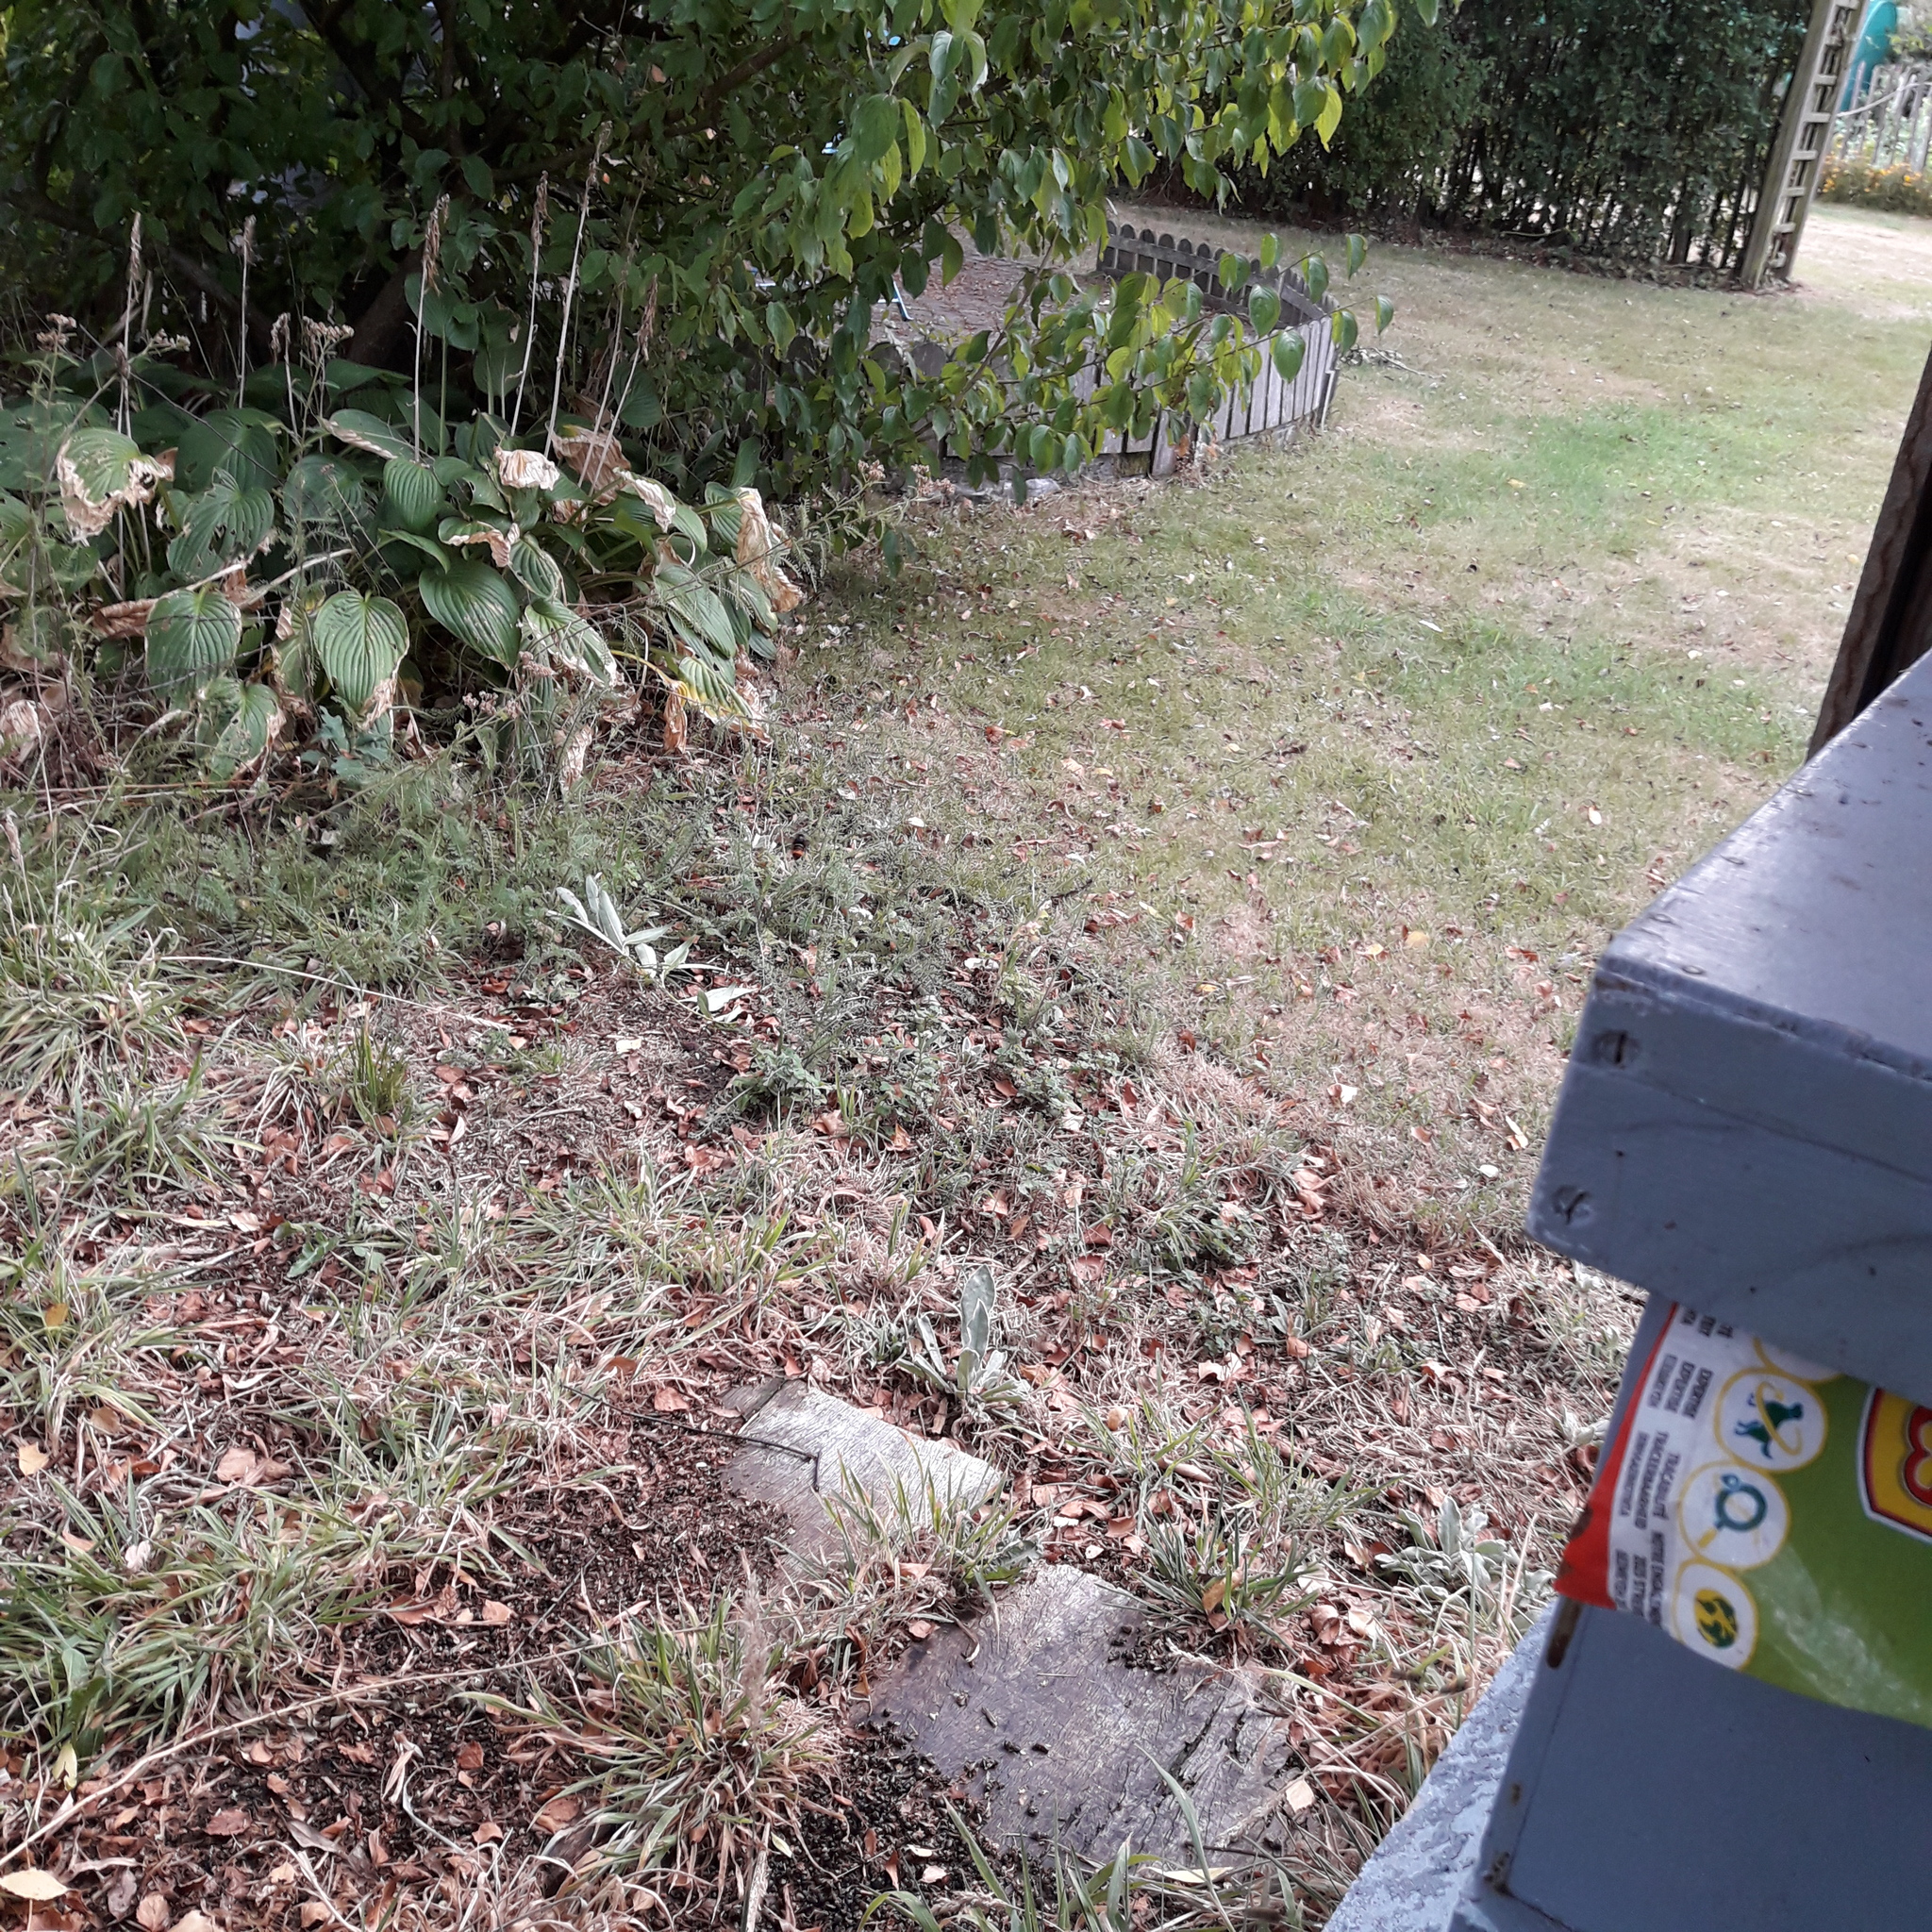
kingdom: Animalia
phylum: Arthropoda
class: Insecta
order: Hymenoptera
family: Vespidae
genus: Vespa
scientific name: Vespa velutina
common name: Asian hornet
